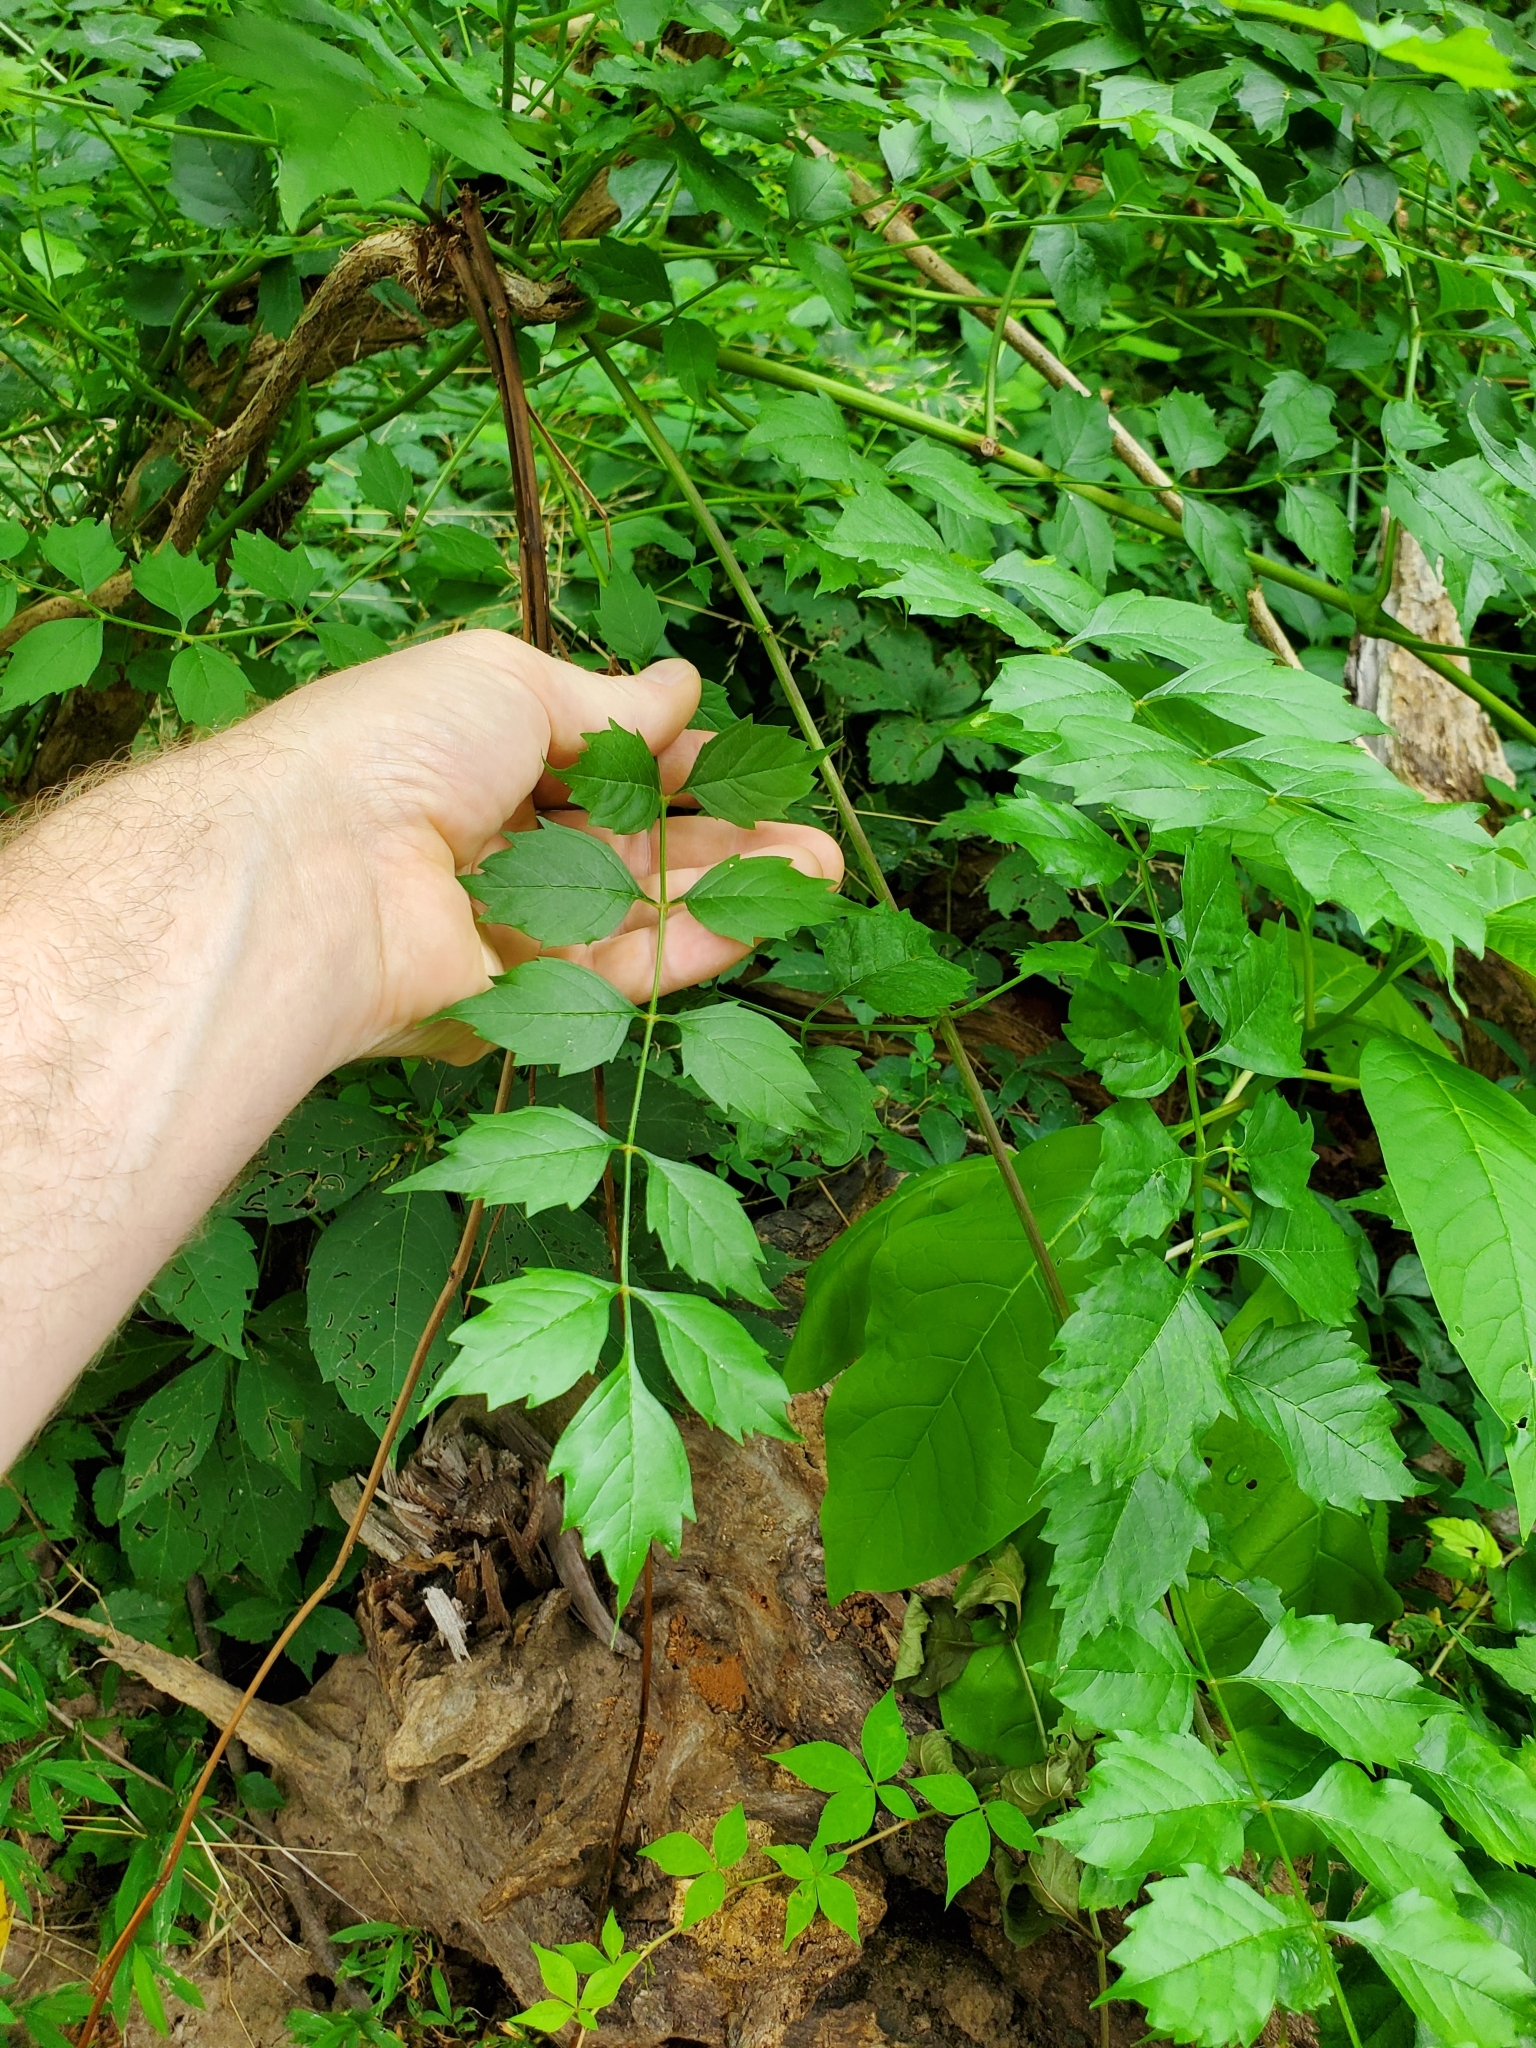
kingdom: Plantae
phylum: Tracheophyta
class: Magnoliopsida
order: Lamiales
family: Bignoniaceae
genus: Campsis
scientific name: Campsis radicans
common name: Trumpet-creeper
